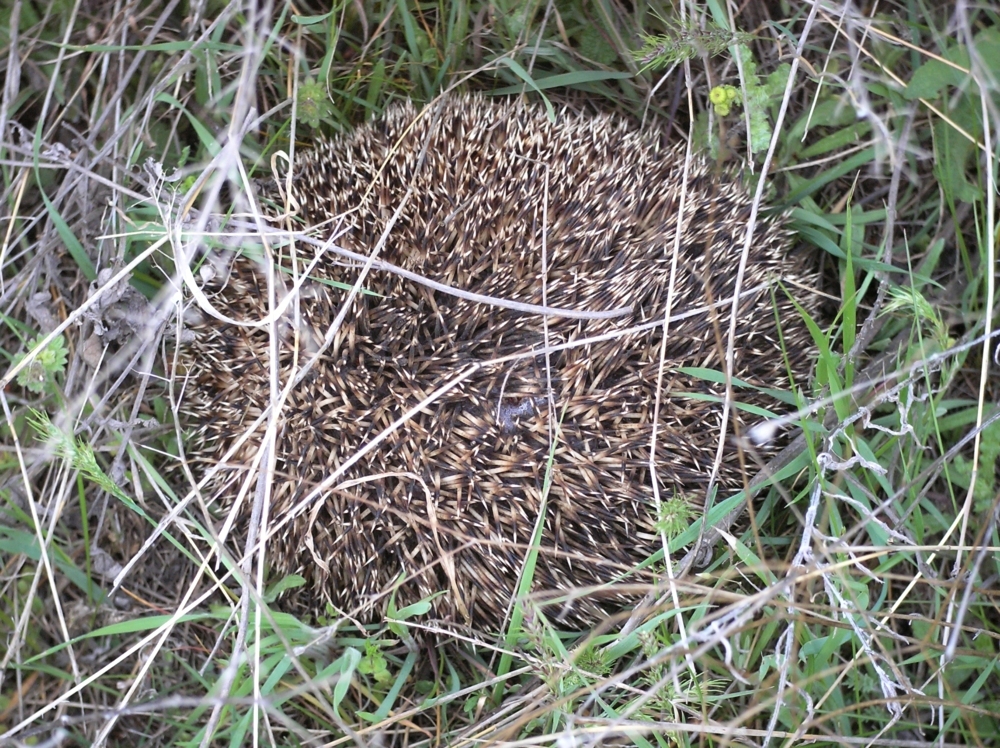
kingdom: Animalia
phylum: Chordata
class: Mammalia
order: Erinaceomorpha
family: Erinaceidae
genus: Erinaceus
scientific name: Erinaceus roumanicus
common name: Northern white-breasted hedgehog
